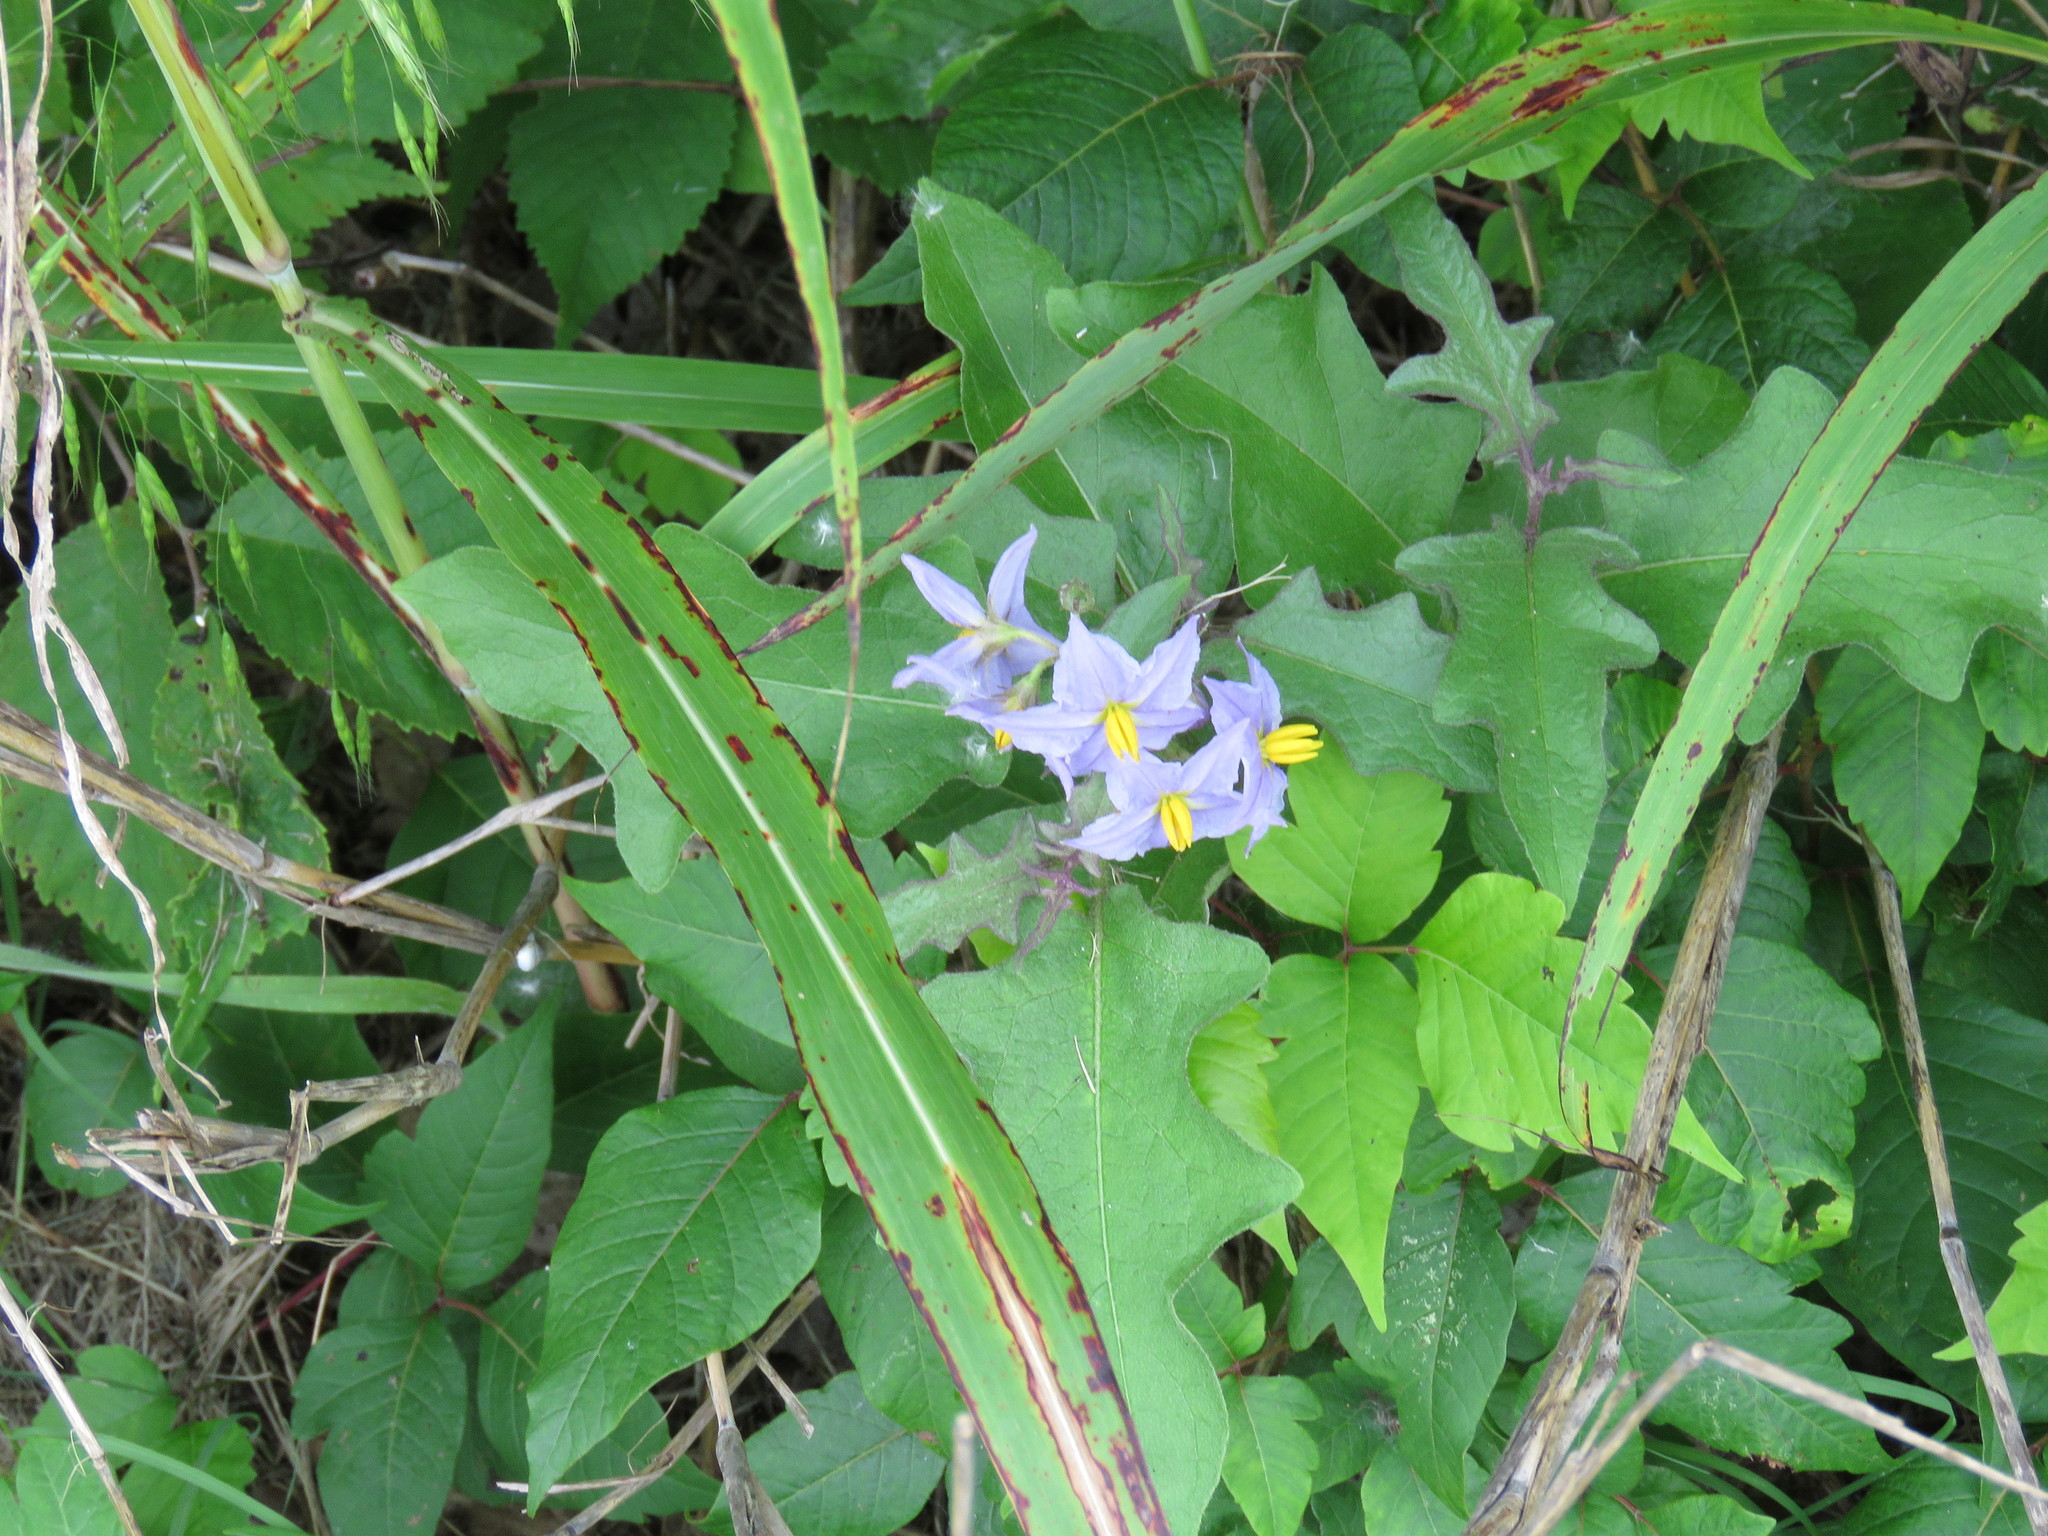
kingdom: Plantae
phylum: Tracheophyta
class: Magnoliopsida
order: Solanales
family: Solanaceae
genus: Solanum
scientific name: Solanum dimidiatum
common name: Carolina horse-nettle
